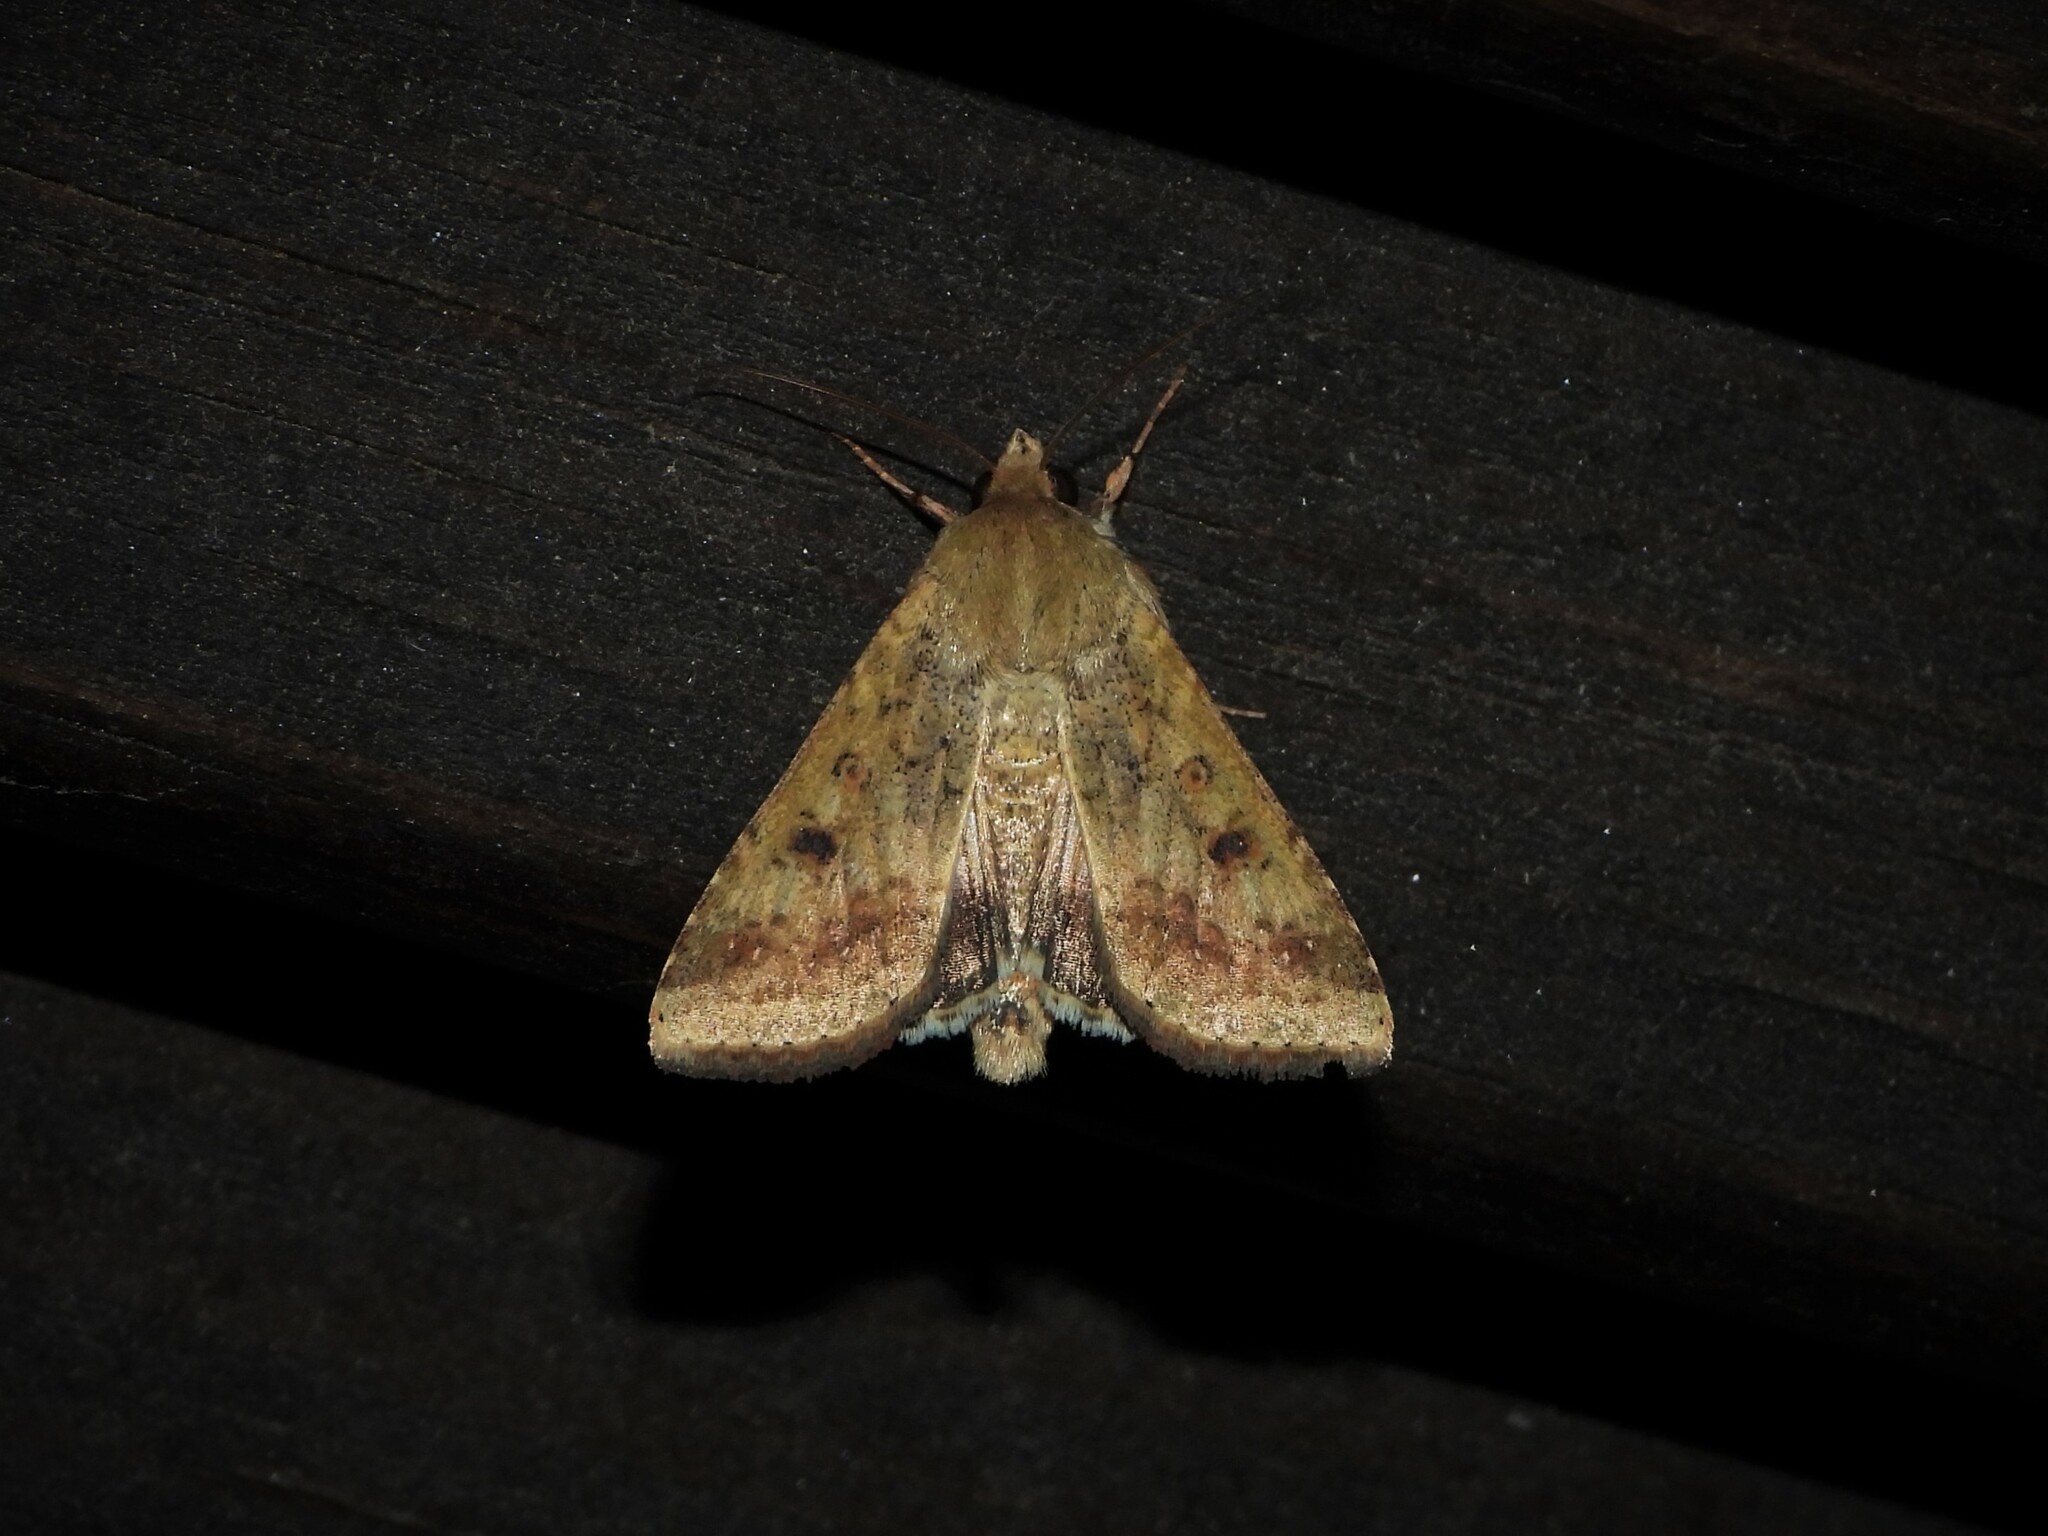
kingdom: Animalia
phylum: Arthropoda
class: Insecta
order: Lepidoptera
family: Noctuidae
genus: Helicoverpa
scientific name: Helicoverpa armigera
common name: Cotton bollworm
